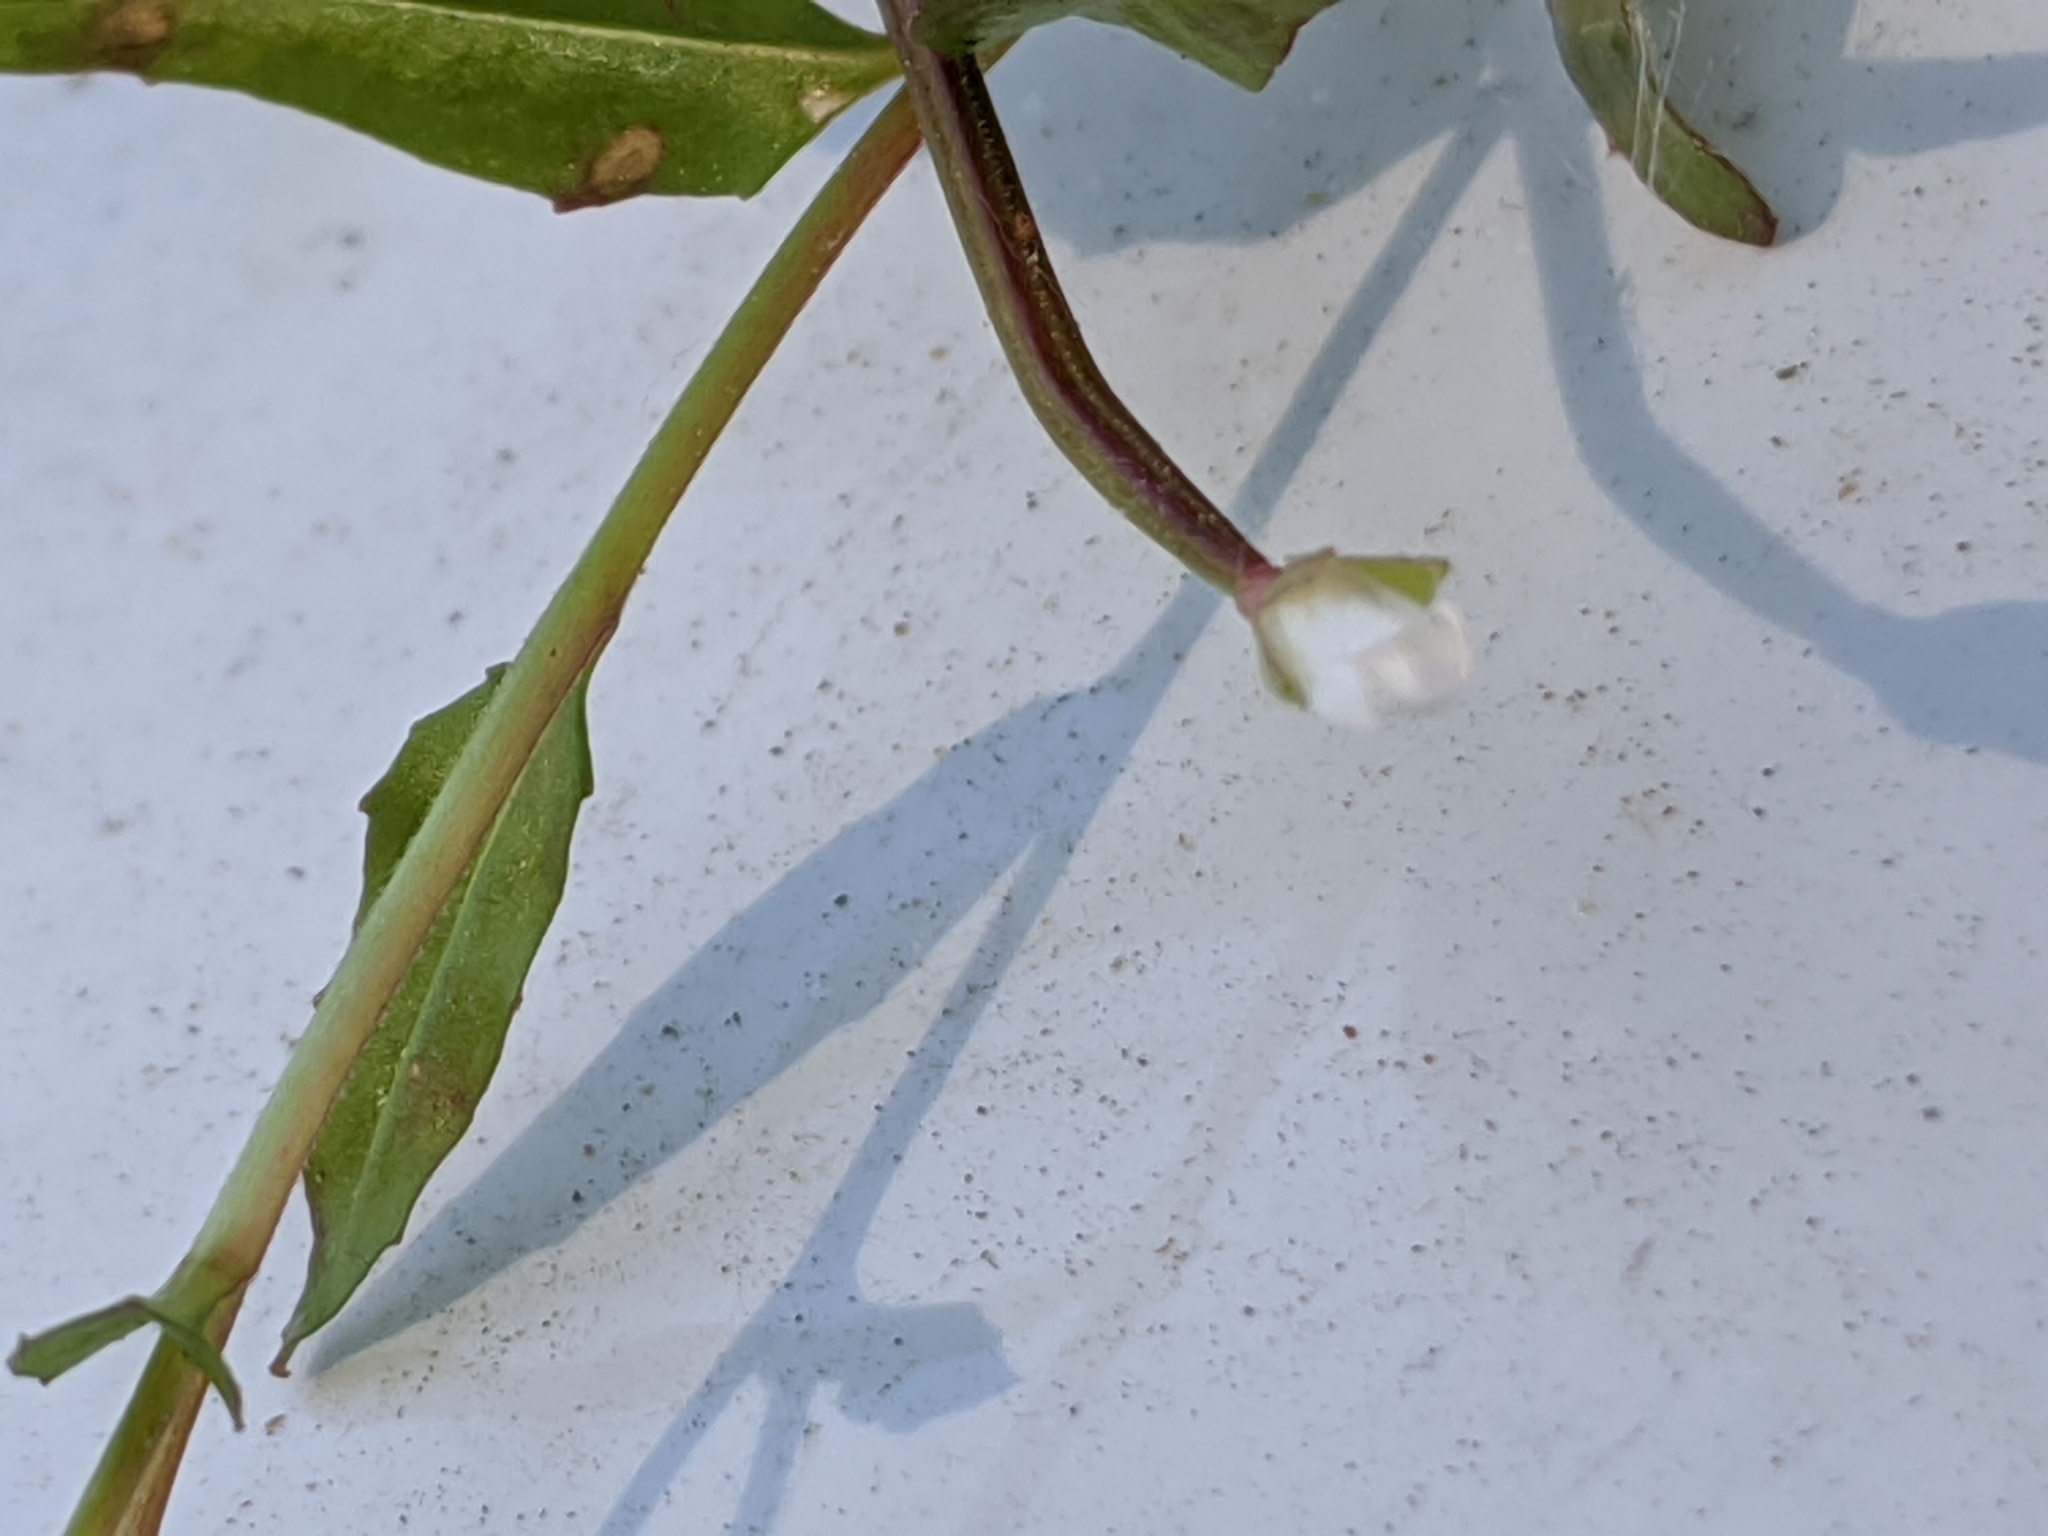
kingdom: Plantae
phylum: Tracheophyta
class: Magnoliopsida
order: Myrtales
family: Onagraceae
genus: Epilobium
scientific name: Epilobium ciliatum
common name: American willowherb
